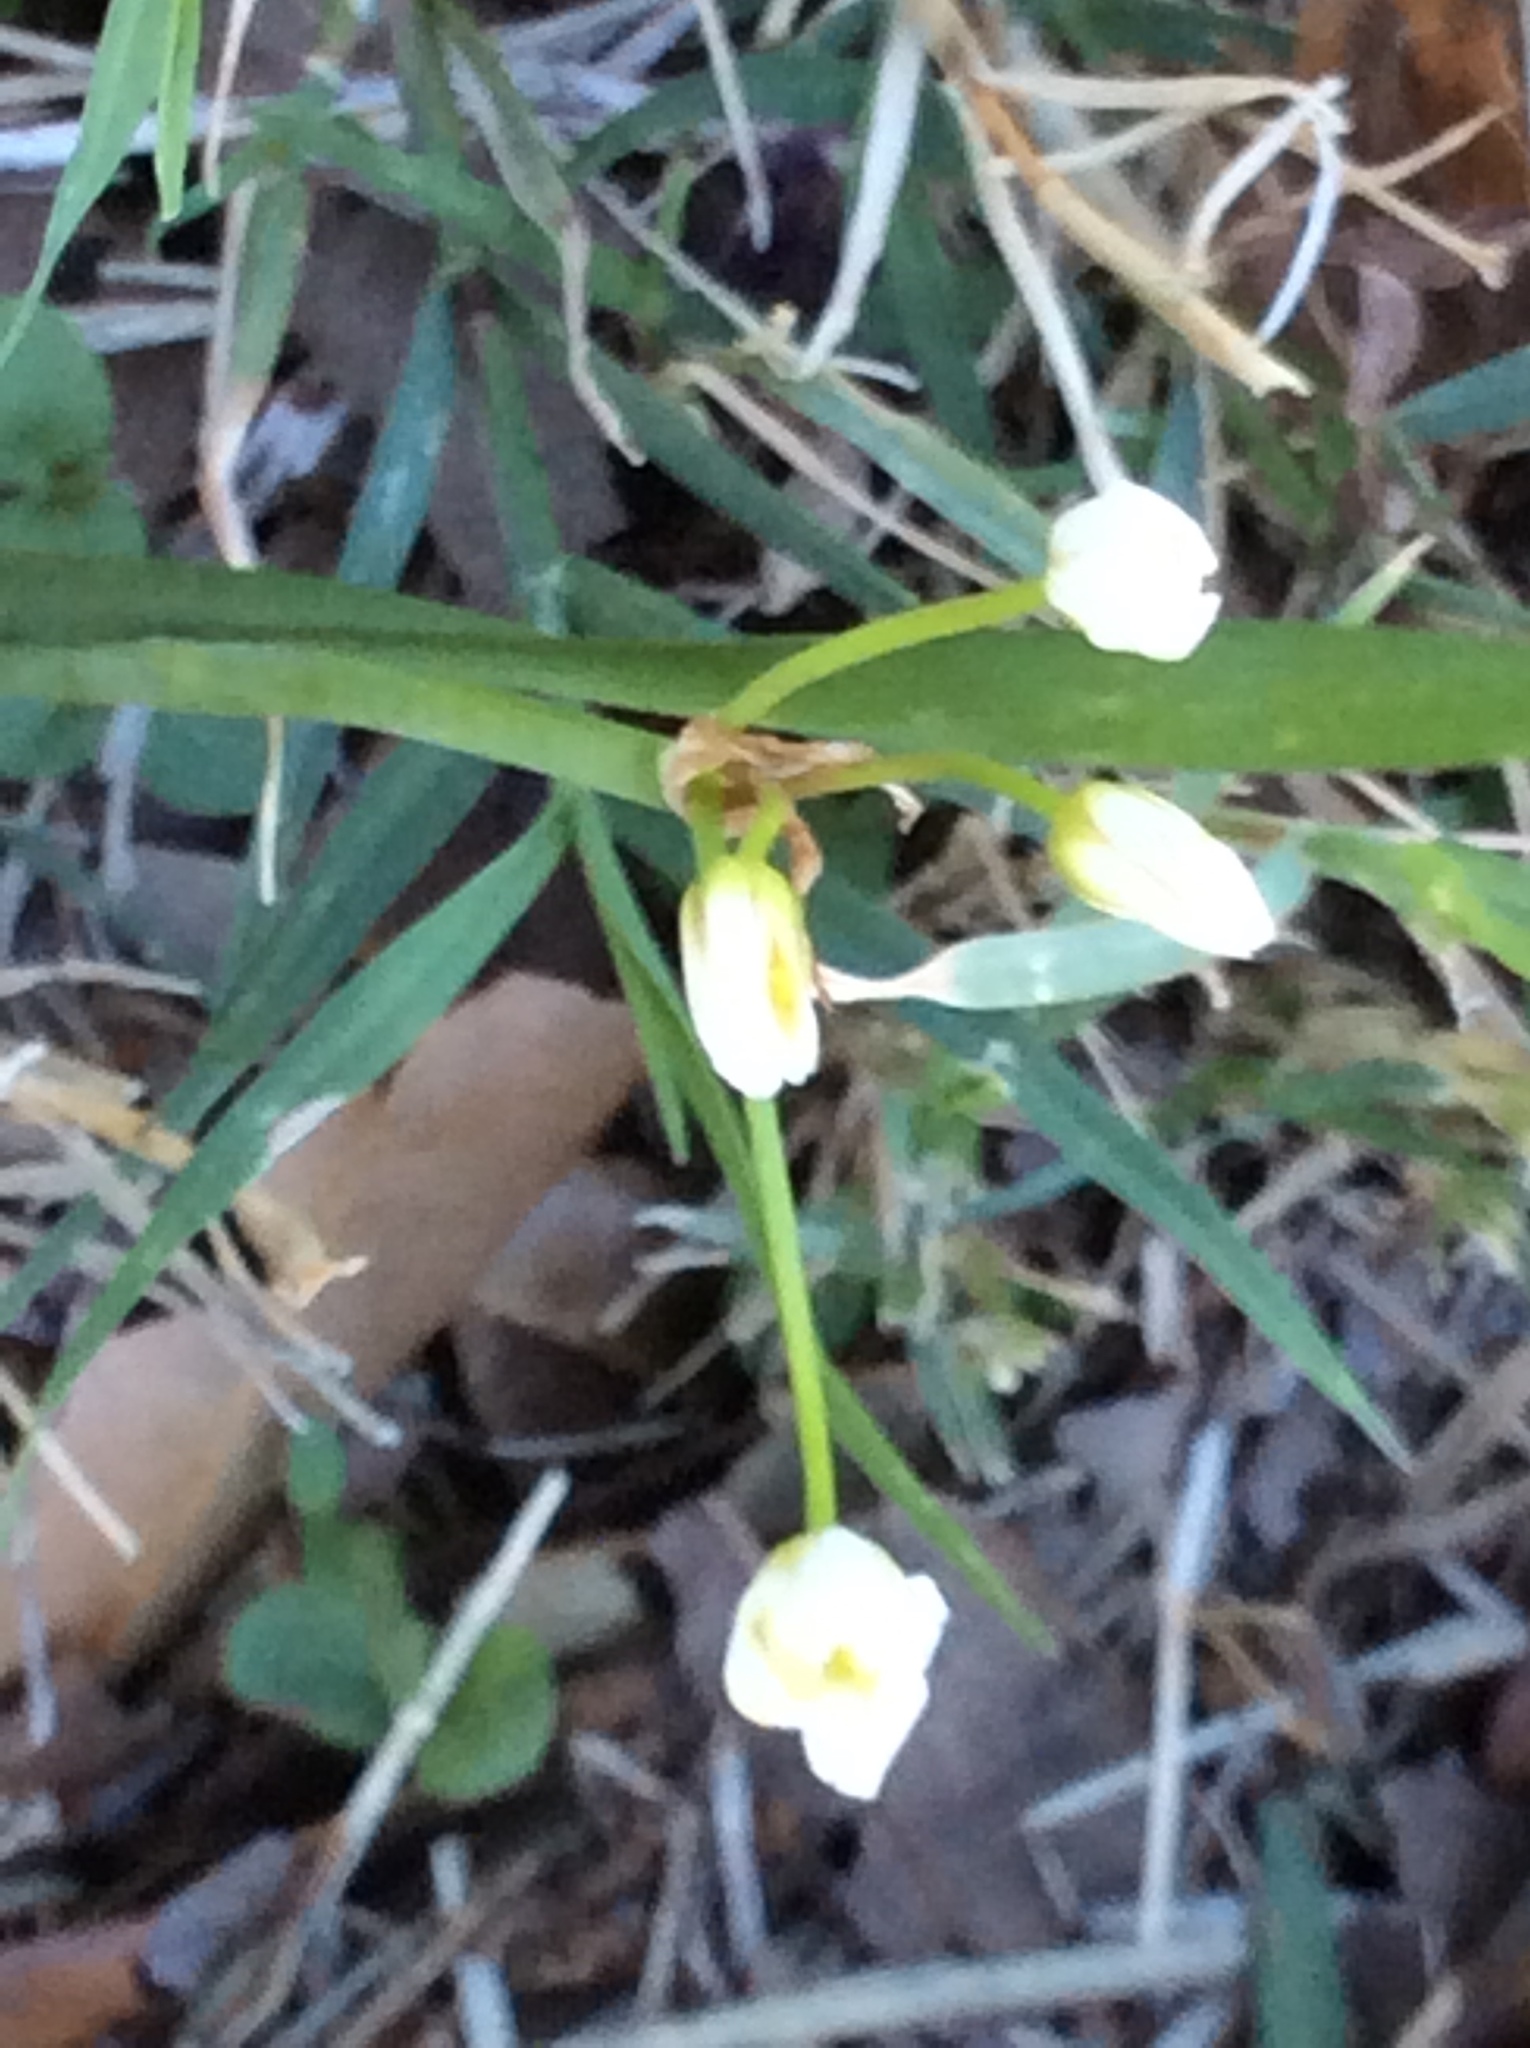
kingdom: Plantae
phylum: Tracheophyta
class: Liliopsida
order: Asparagales
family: Amaryllidaceae
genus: Nothoscordum
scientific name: Nothoscordum bivalve
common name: Crow-poison
